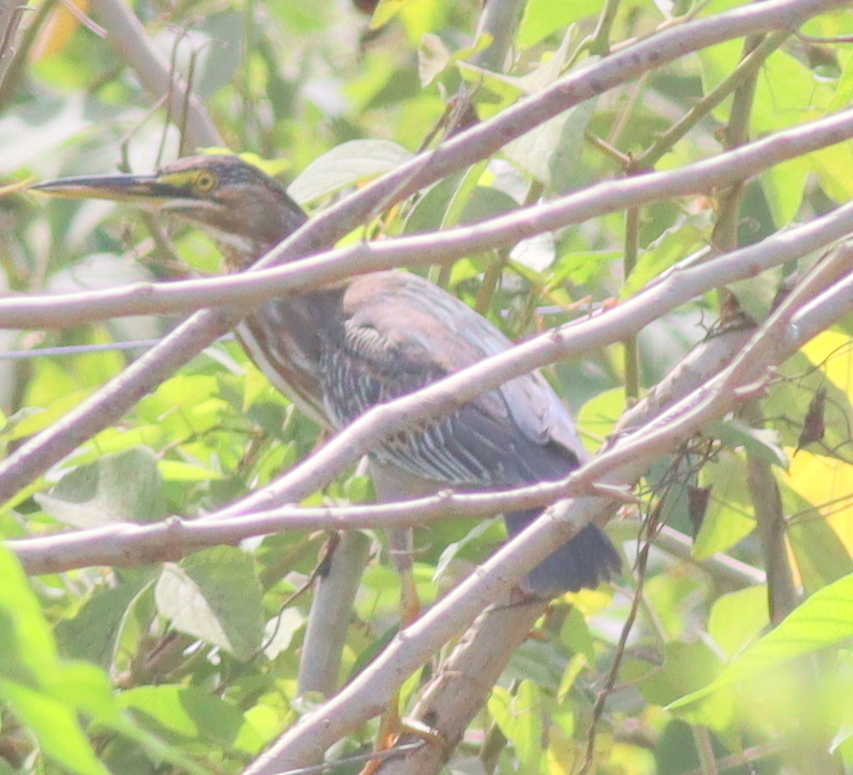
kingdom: Animalia
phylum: Chordata
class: Aves
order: Pelecaniformes
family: Ardeidae
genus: Butorides
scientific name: Butorides striata
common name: Striated heron
